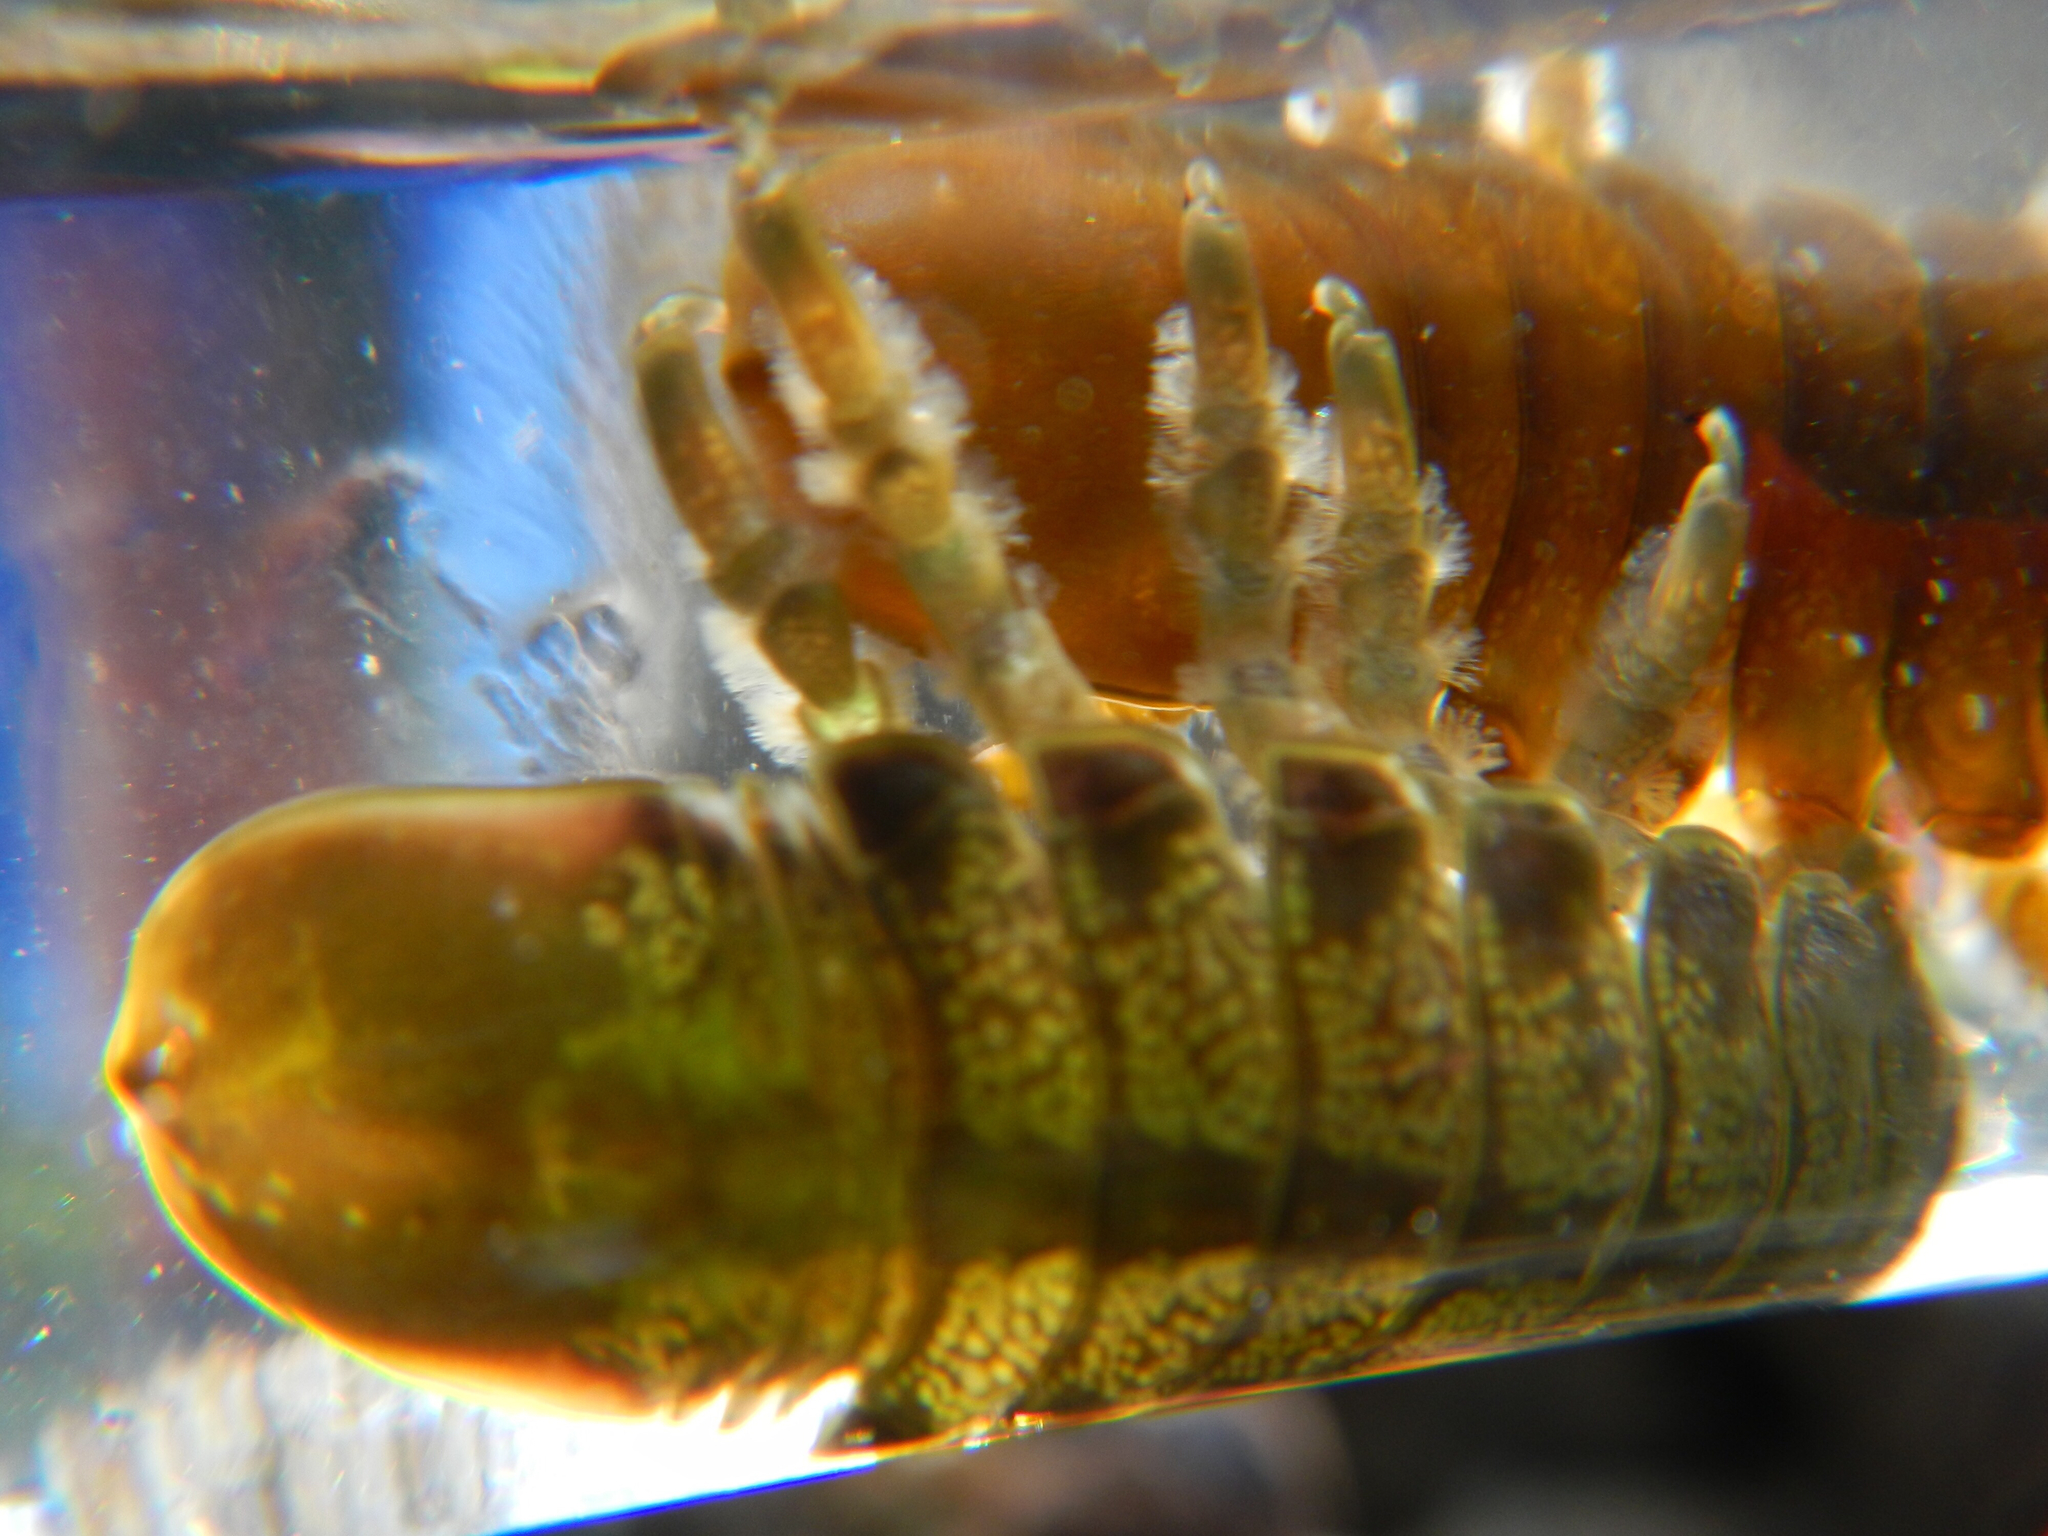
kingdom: Animalia
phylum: Arthropoda
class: Malacostraca
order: Isopoda
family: Idoteidae
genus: Pentidotea
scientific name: Pentidotea wosnesenskii
